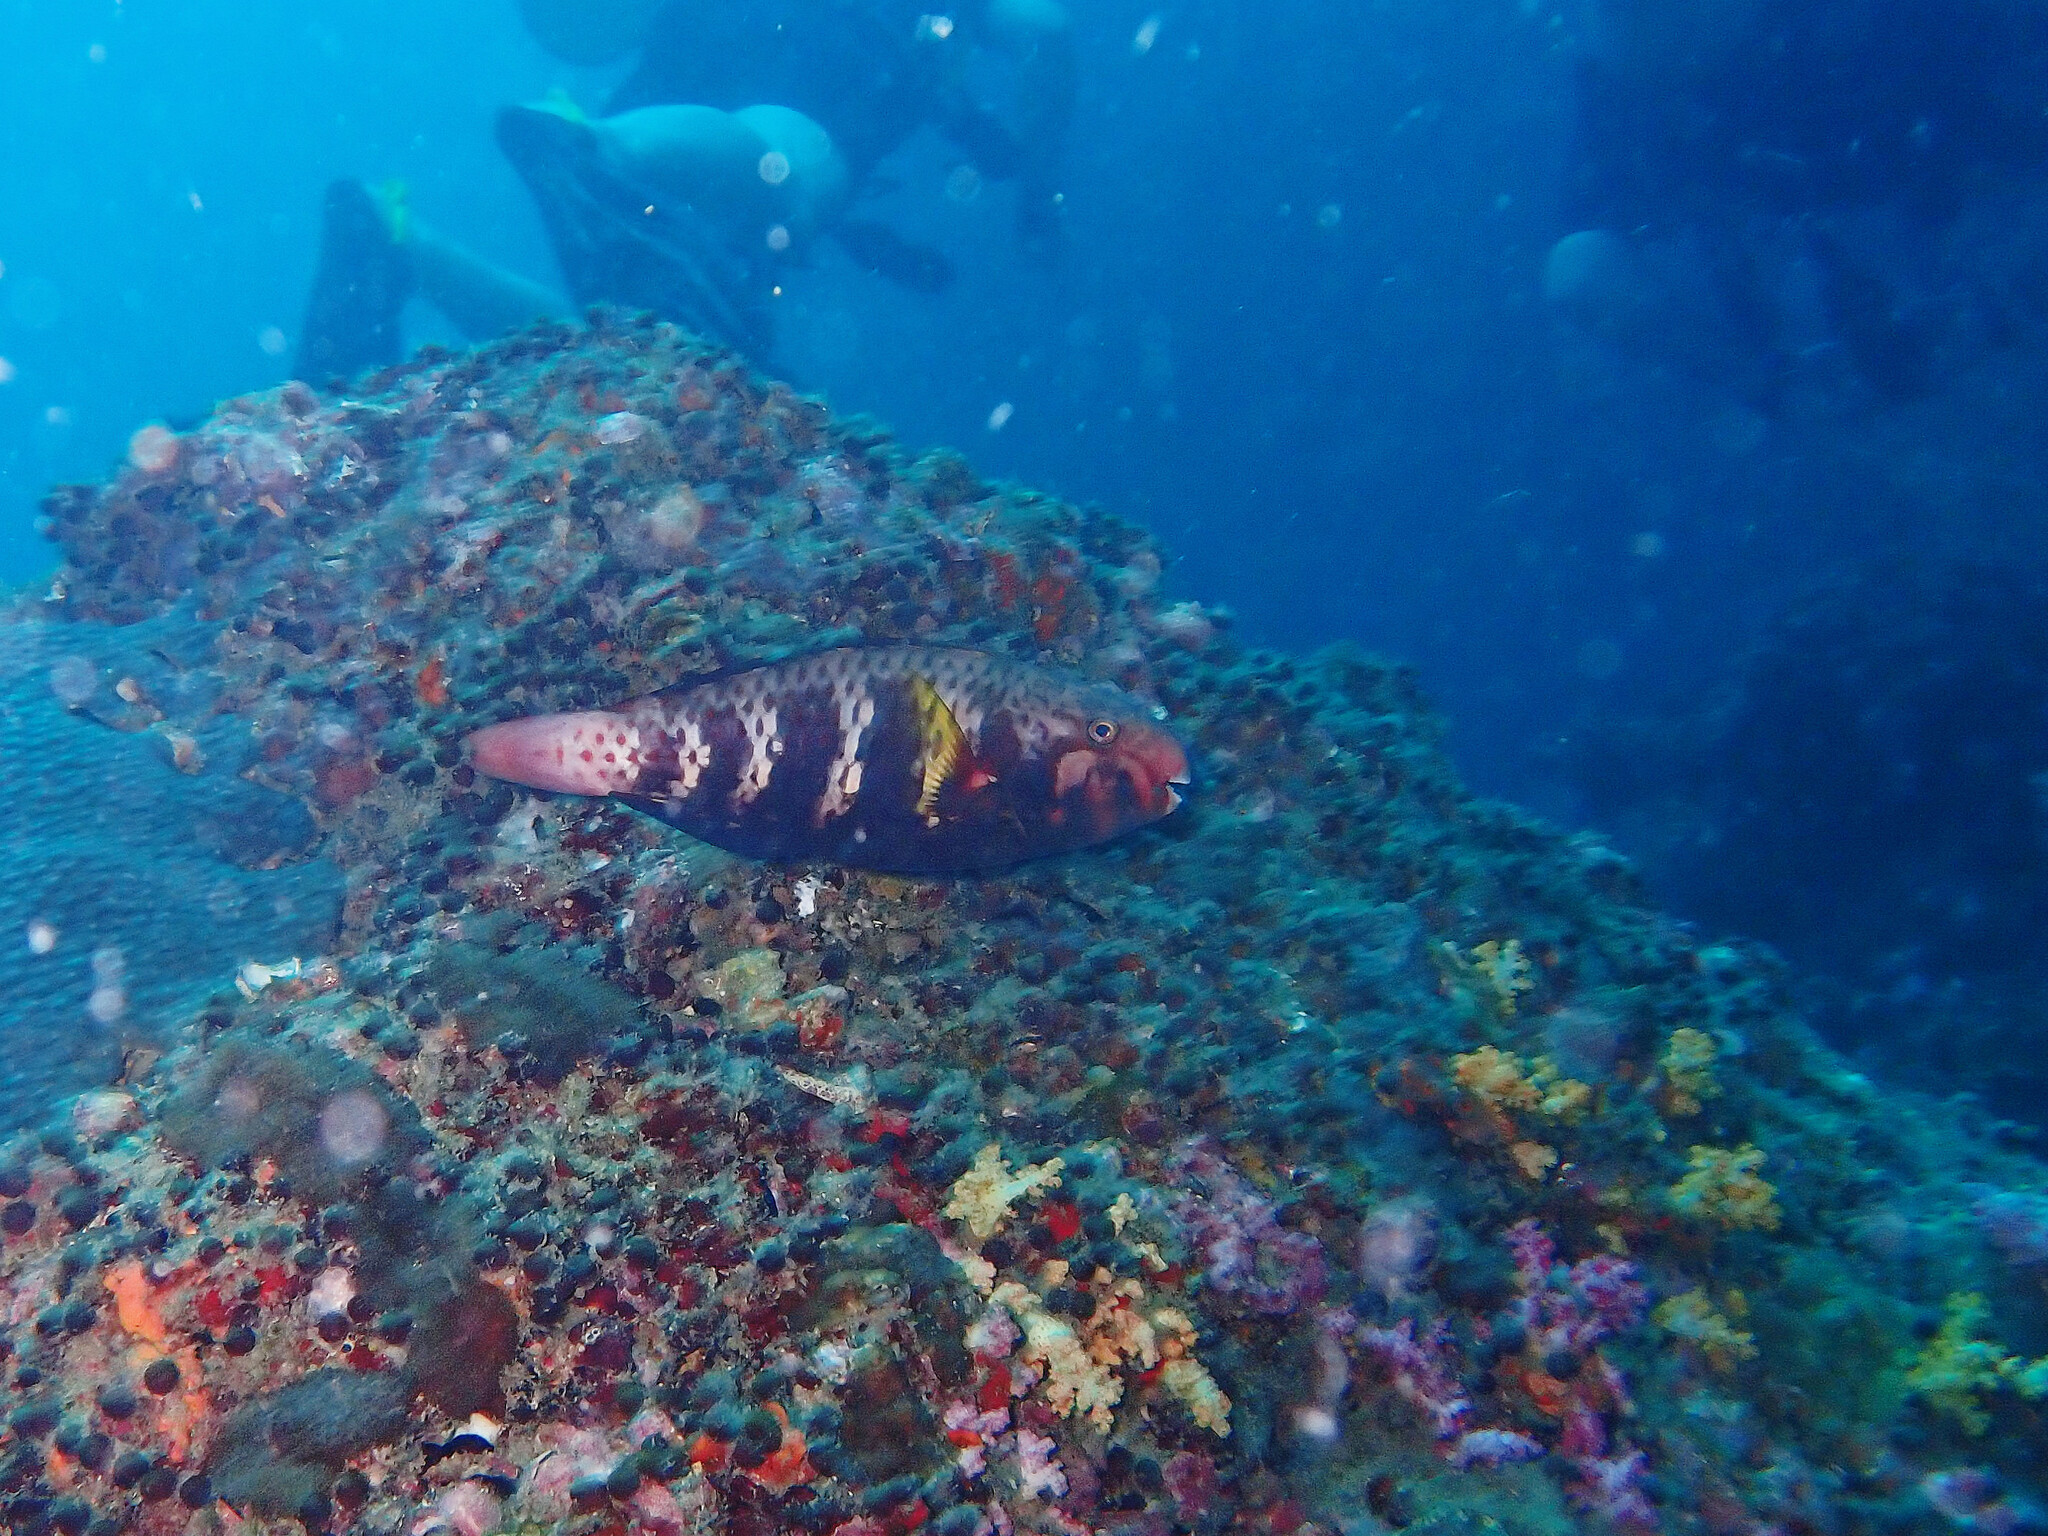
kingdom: Animalia
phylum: Chordata
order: Perciformes
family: Scaridae
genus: Chlorurus
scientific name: Chlorurus capistratoides
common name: Pink-margined parrotfish
